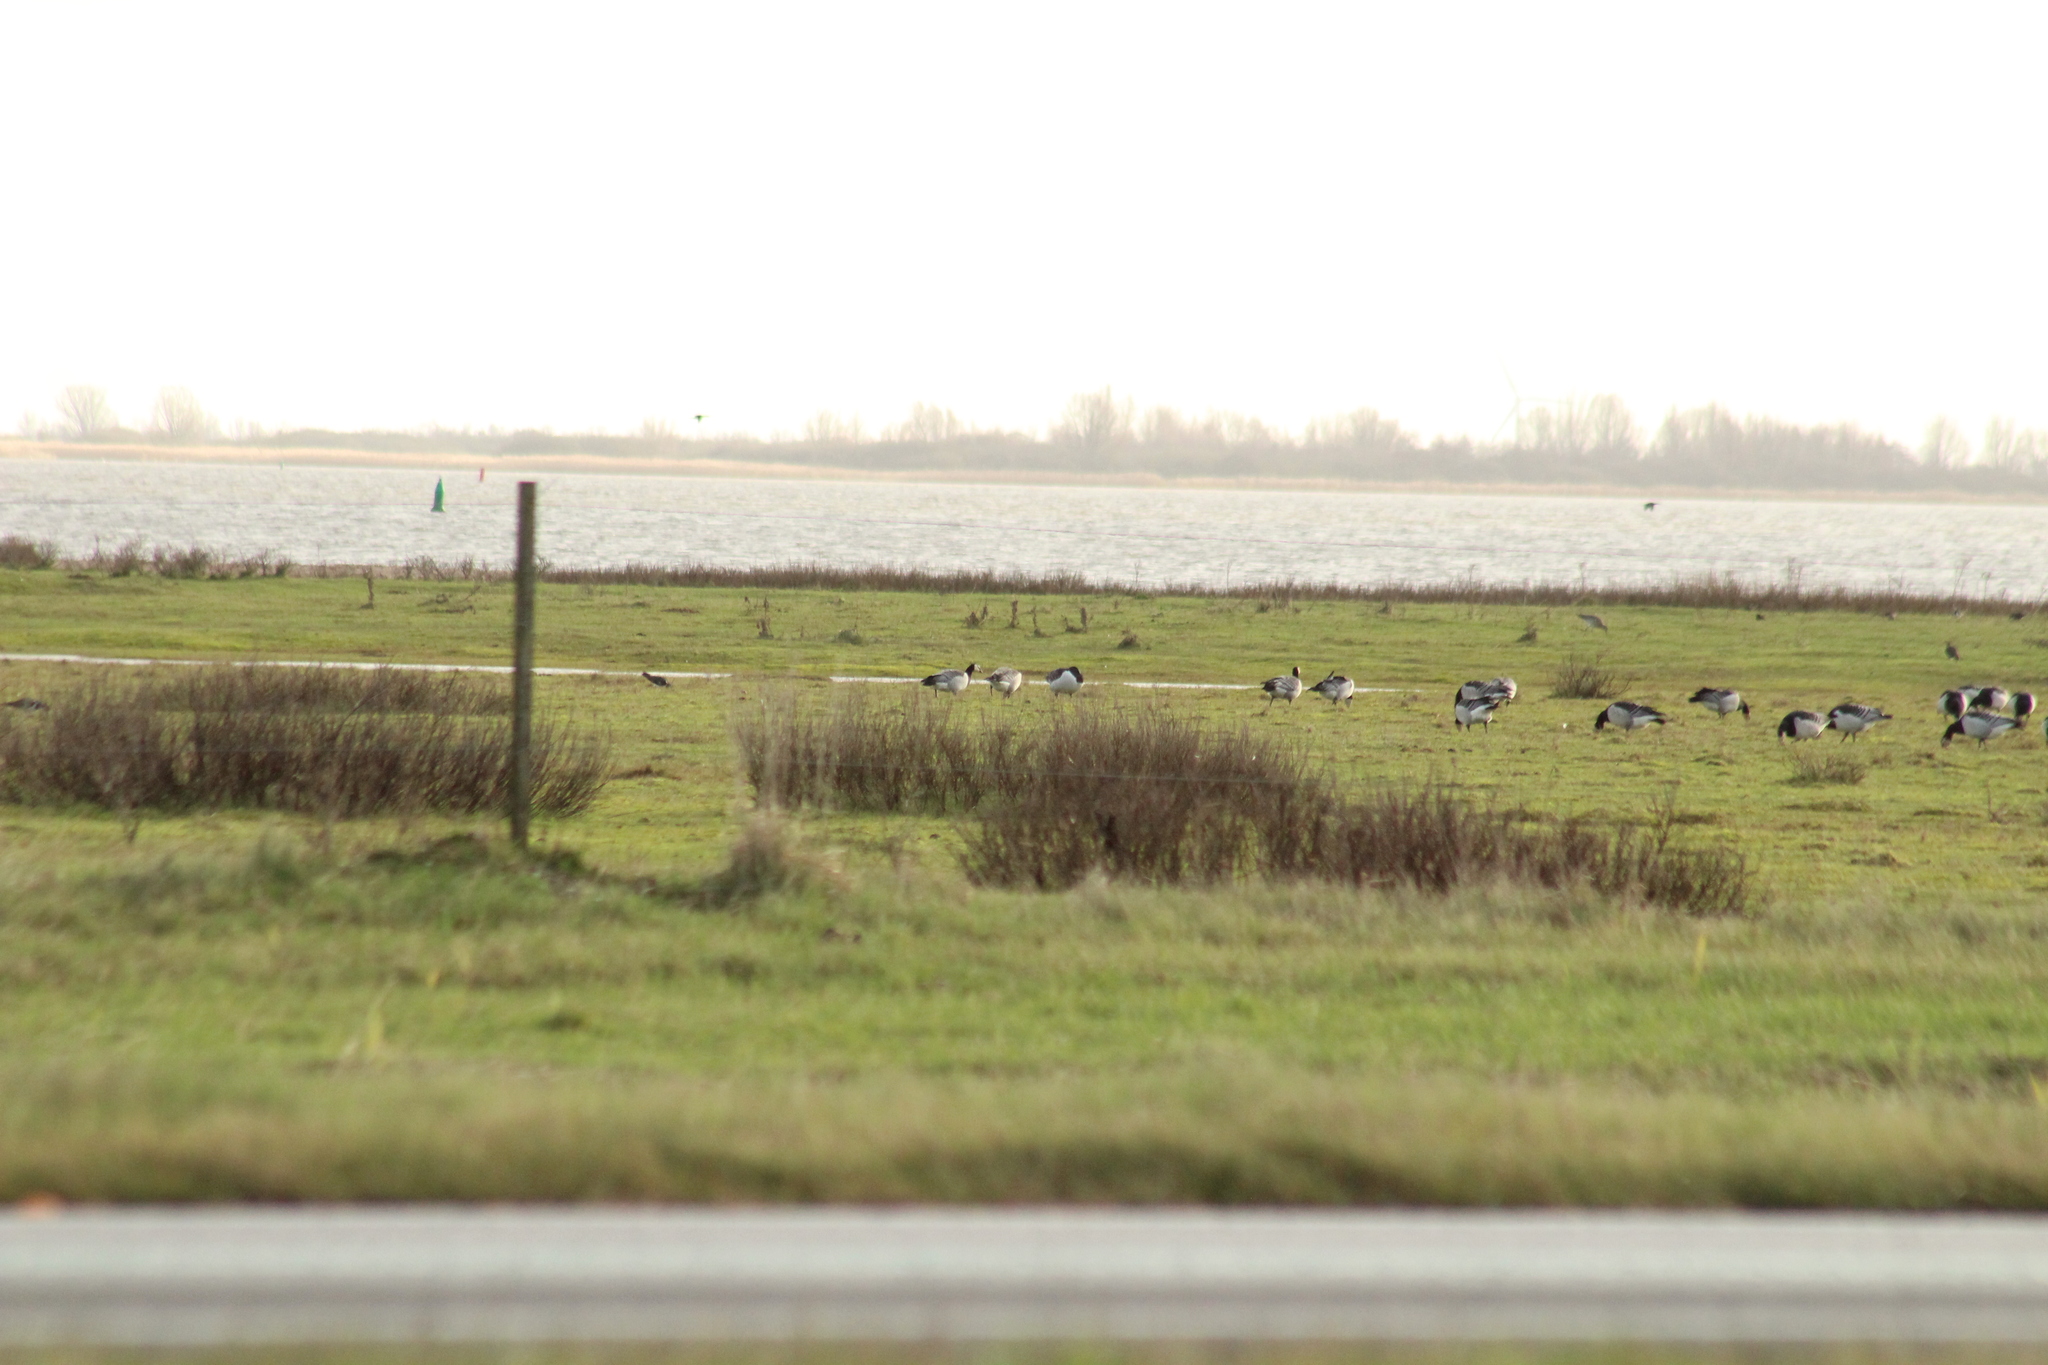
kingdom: Animalia
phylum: Chordata
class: Aves
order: Anseriformes
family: Anatidae
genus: Branta
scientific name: Branta leucopsis
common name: Barnacle goose
